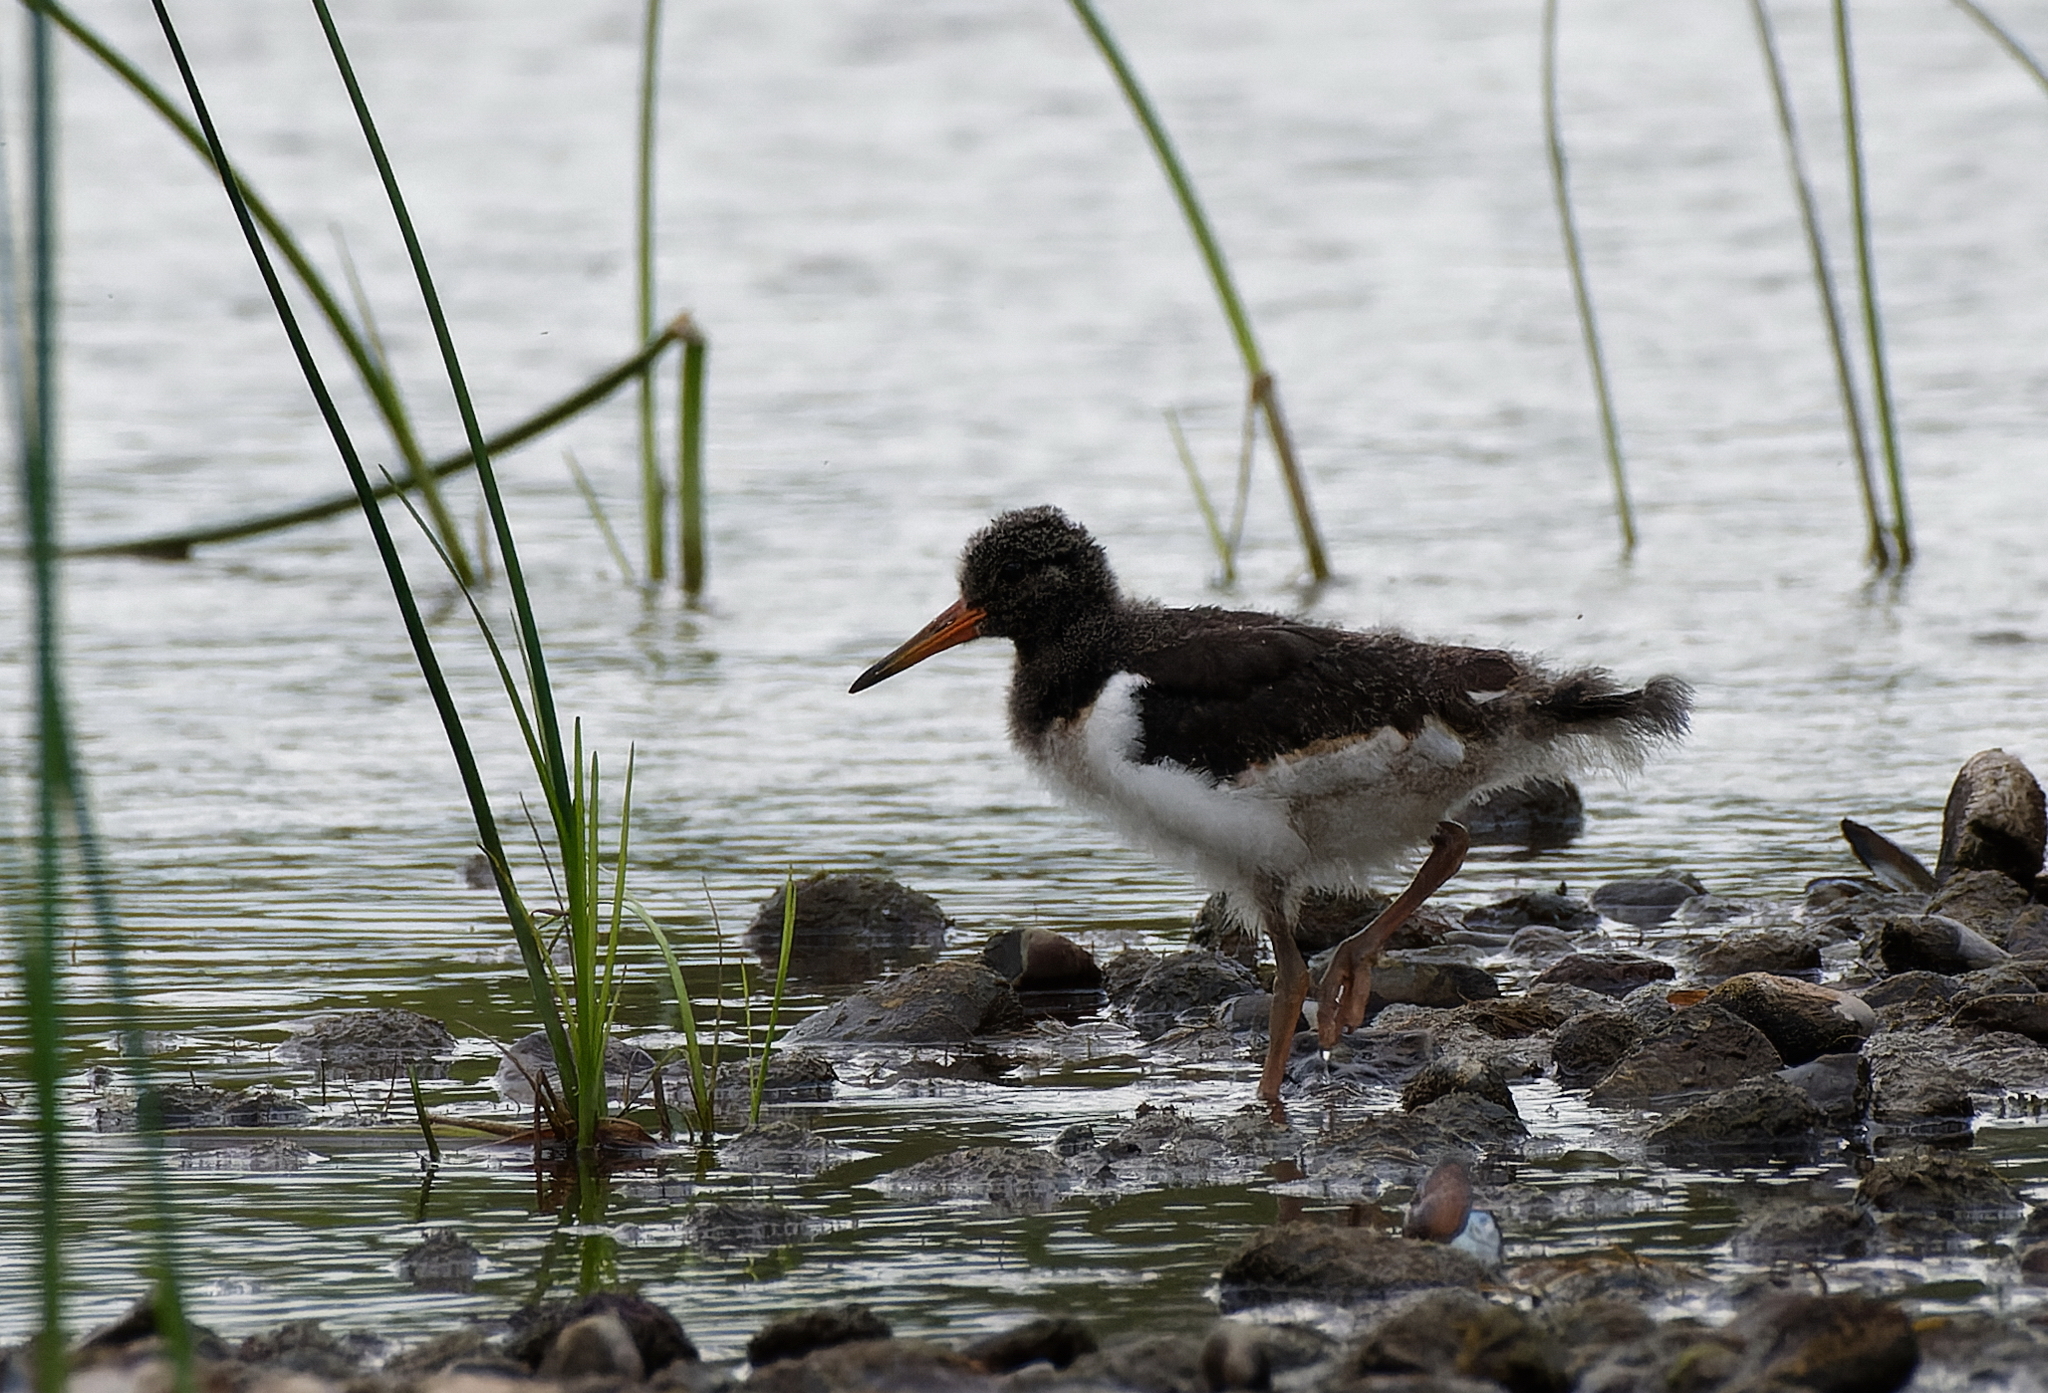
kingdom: Animalia
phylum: Chordata
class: Aves
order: Charadriiformes
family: Haematopodidae
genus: Haematopus
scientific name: Haematopus ostralegus
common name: Eurasian oystercatcher
